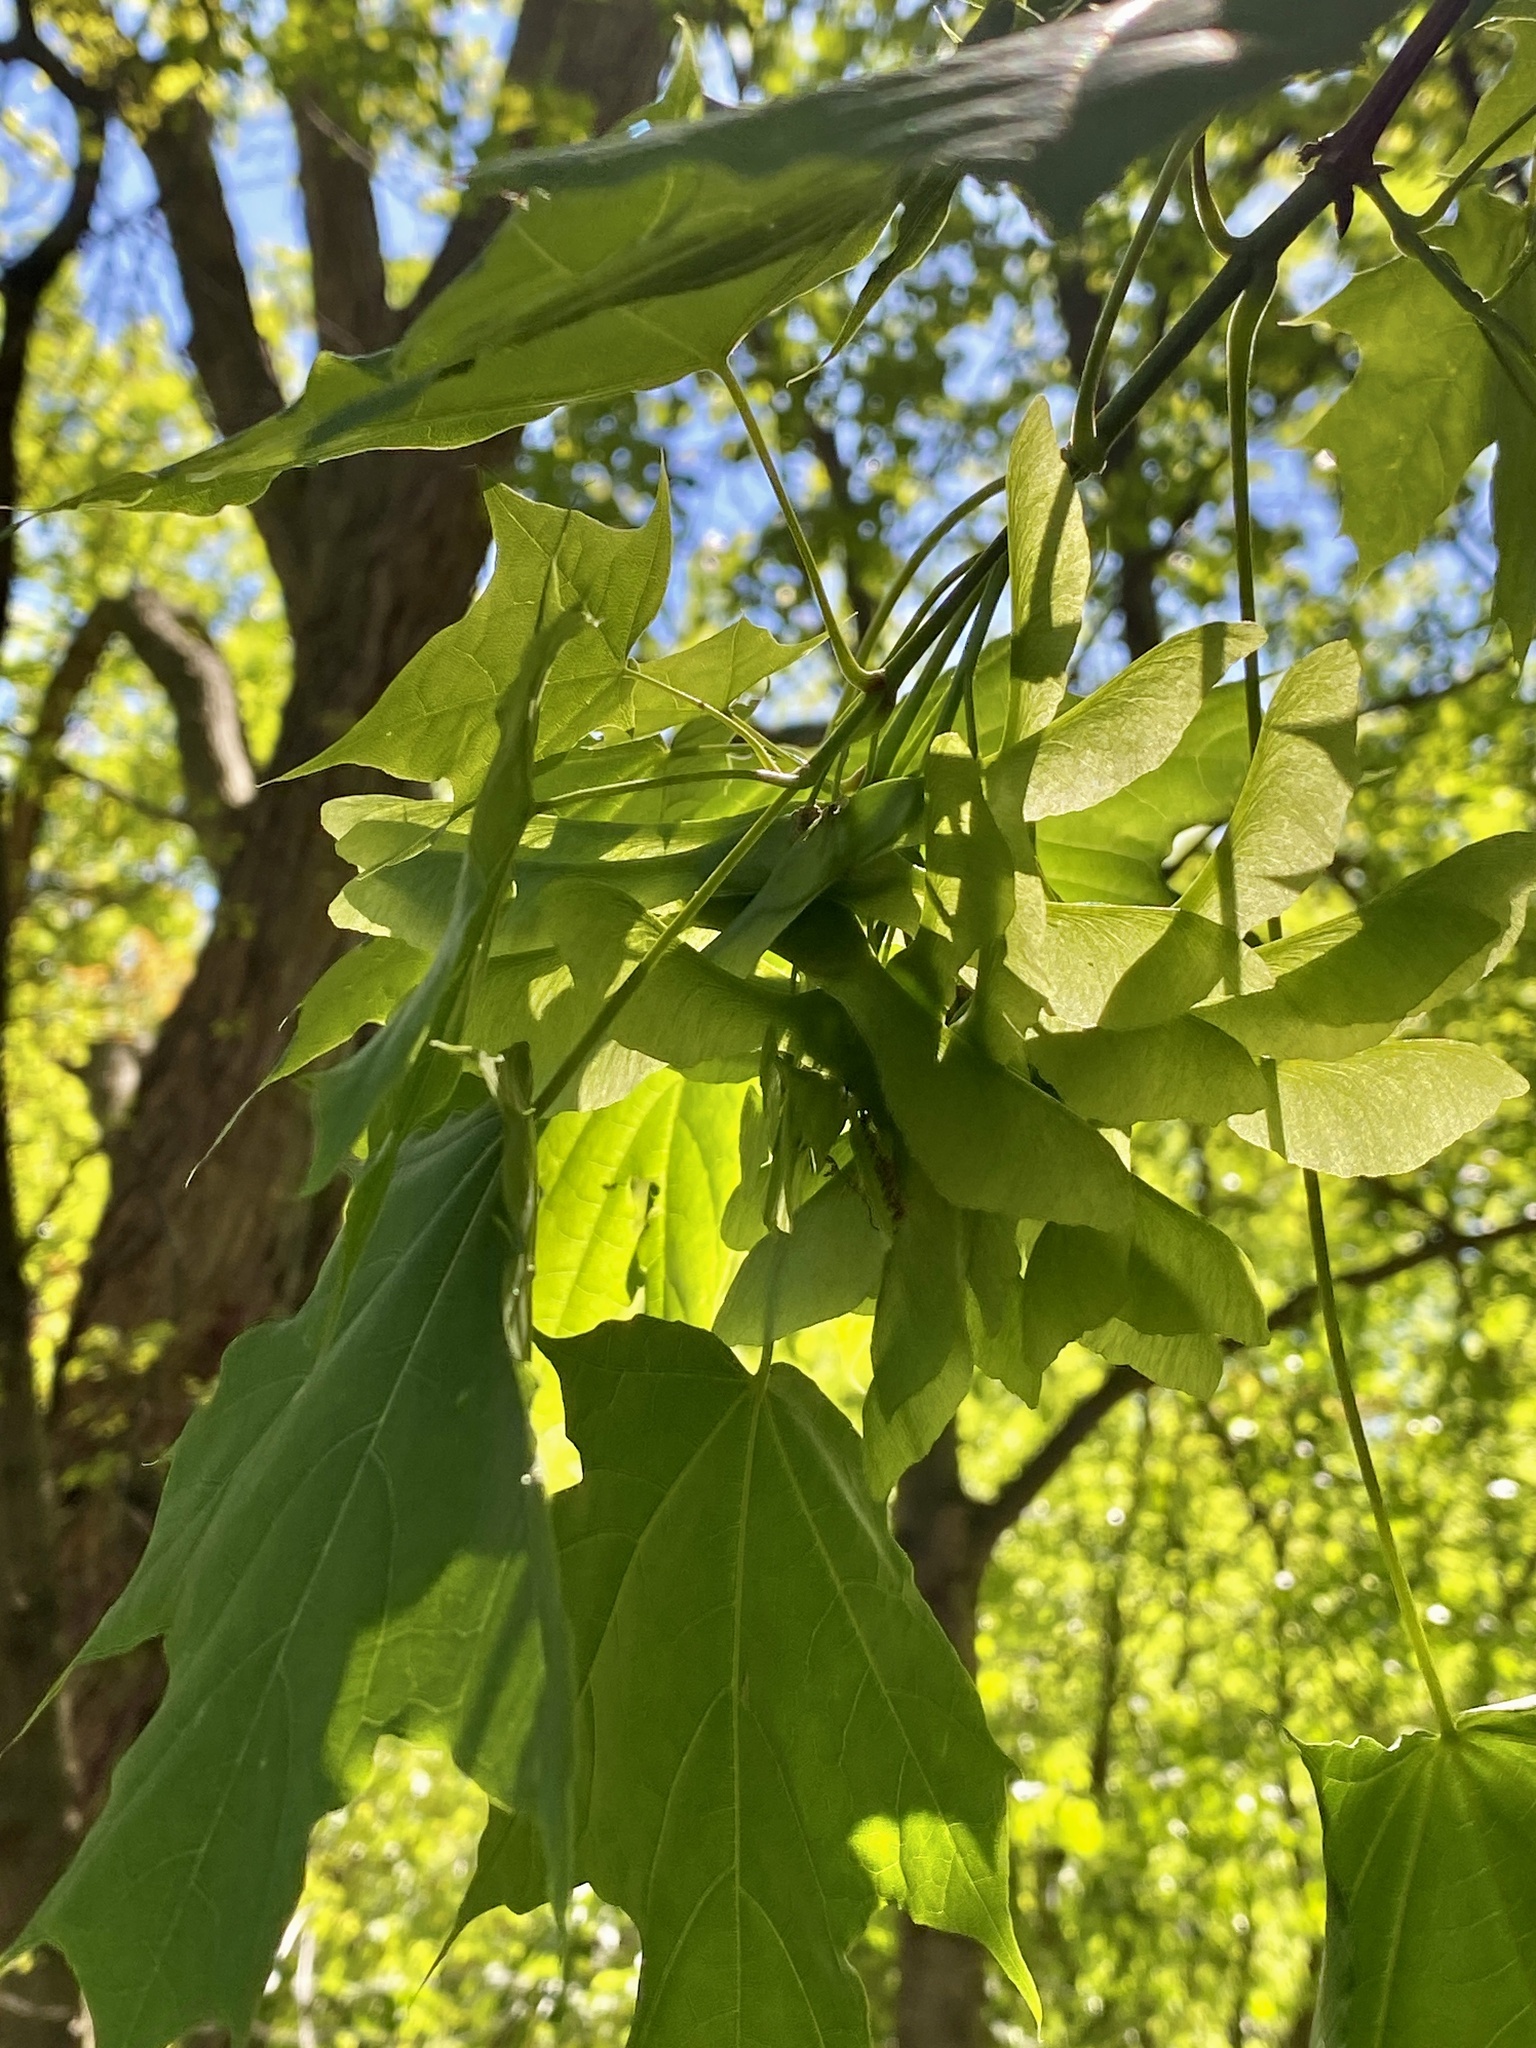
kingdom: Plantae
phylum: Tracheophyta
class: Magnoliopsida
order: Sapindales
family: Sapindaceae
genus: Acer
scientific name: Acer platanoides
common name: Norway maple
